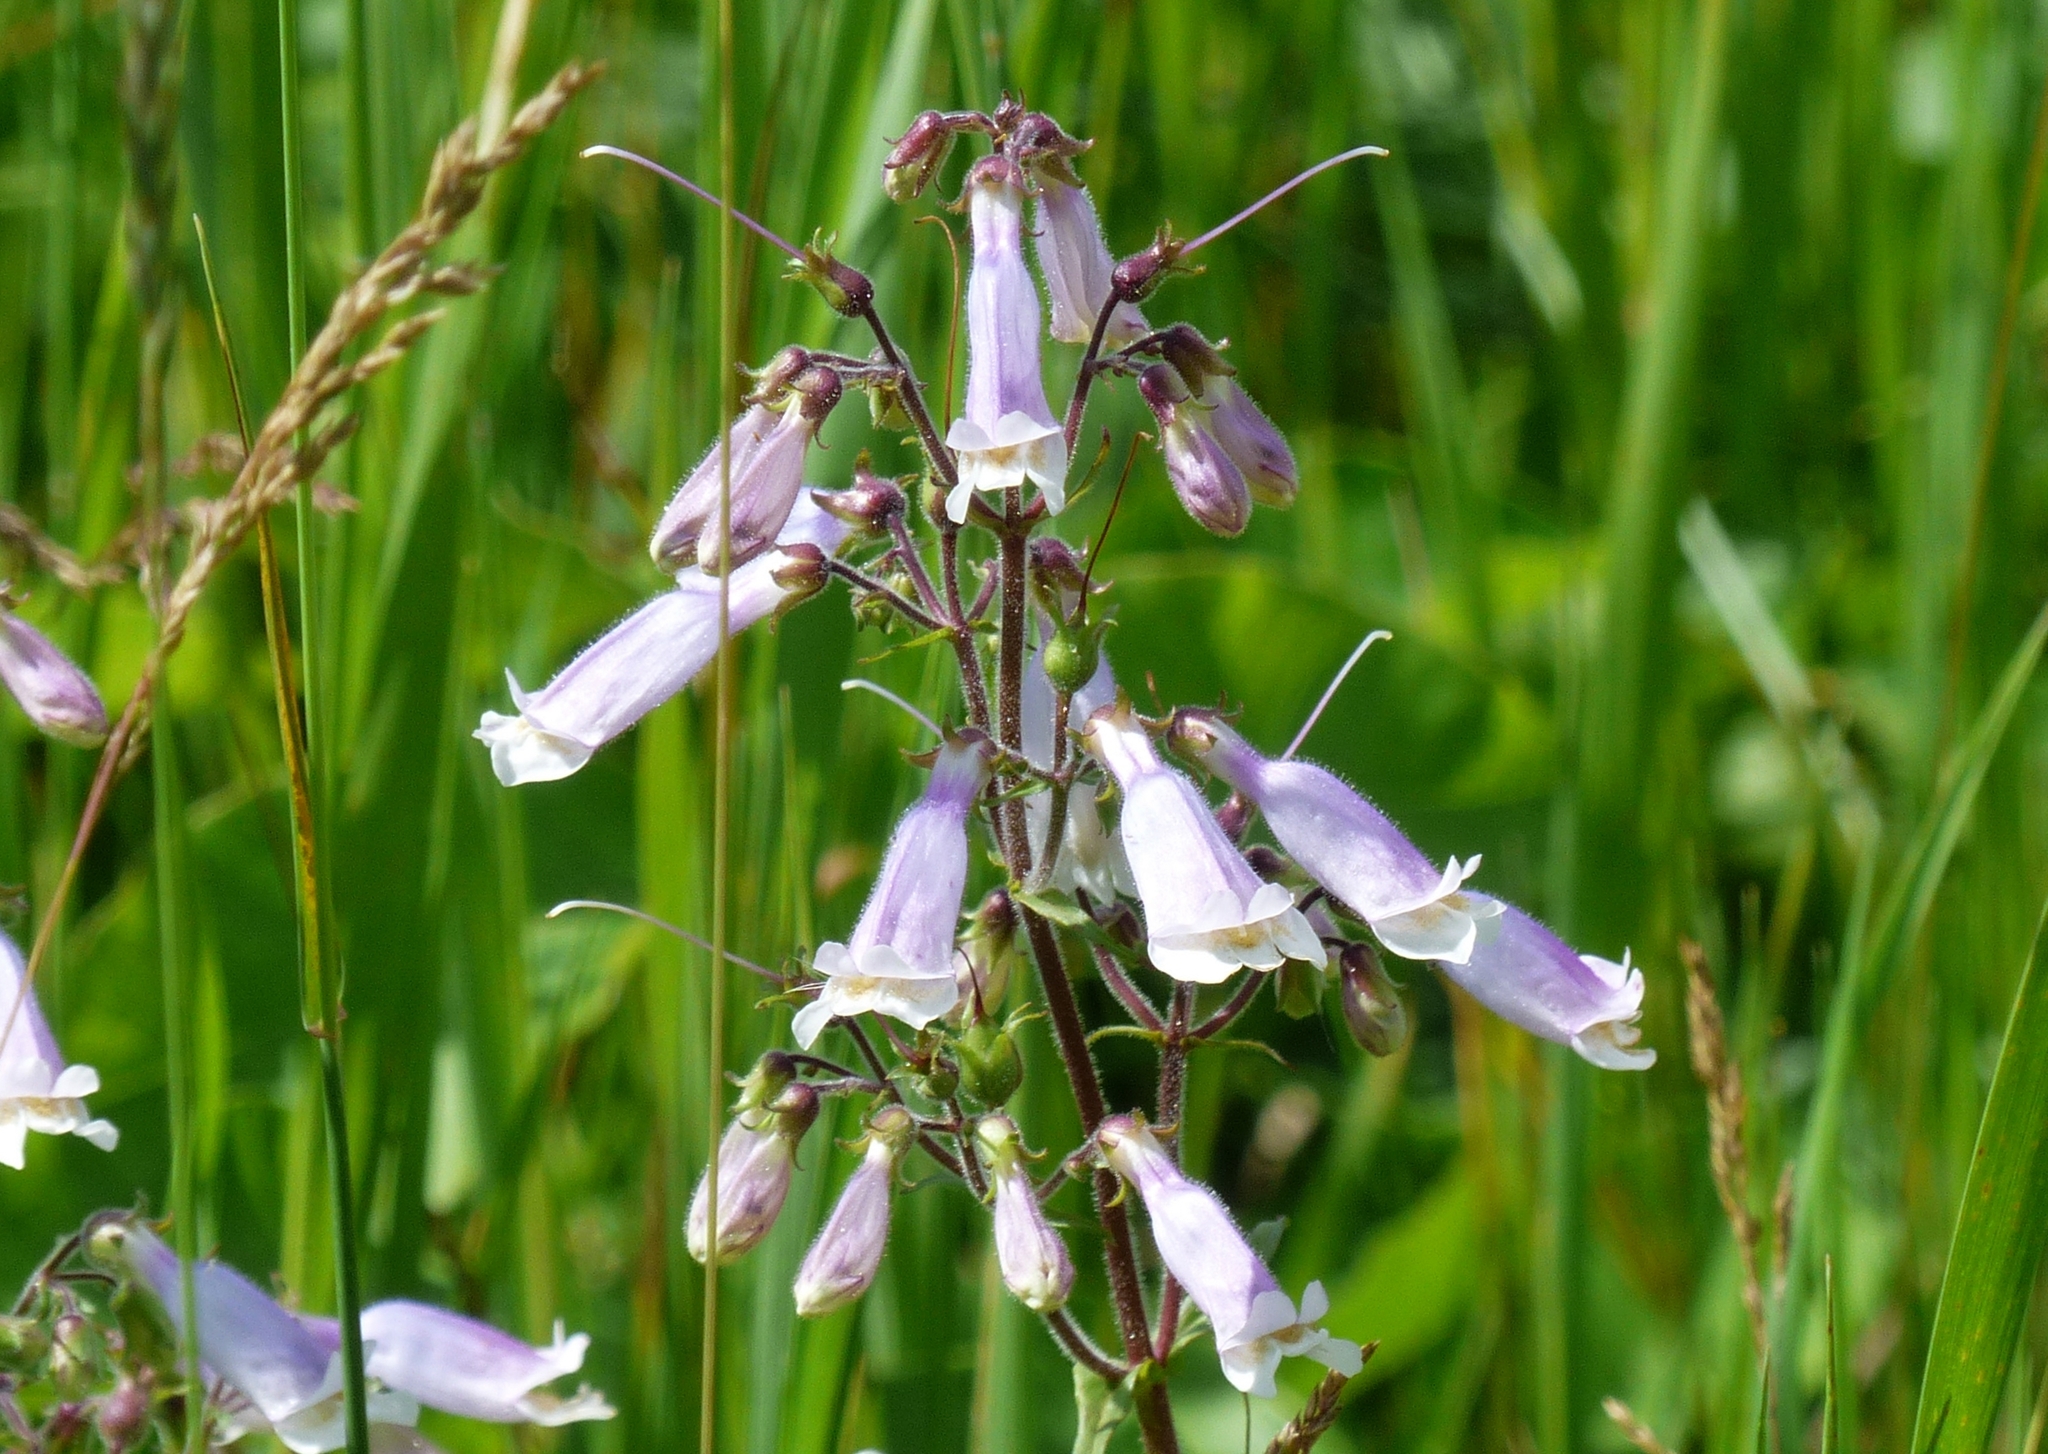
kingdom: Plantae
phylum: Tracheophyta
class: Magnoliopsida
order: Lamiales
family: Plantaginaceae
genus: Penstemon
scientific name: Penstemon hirsutus
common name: Hairy beardtongue
